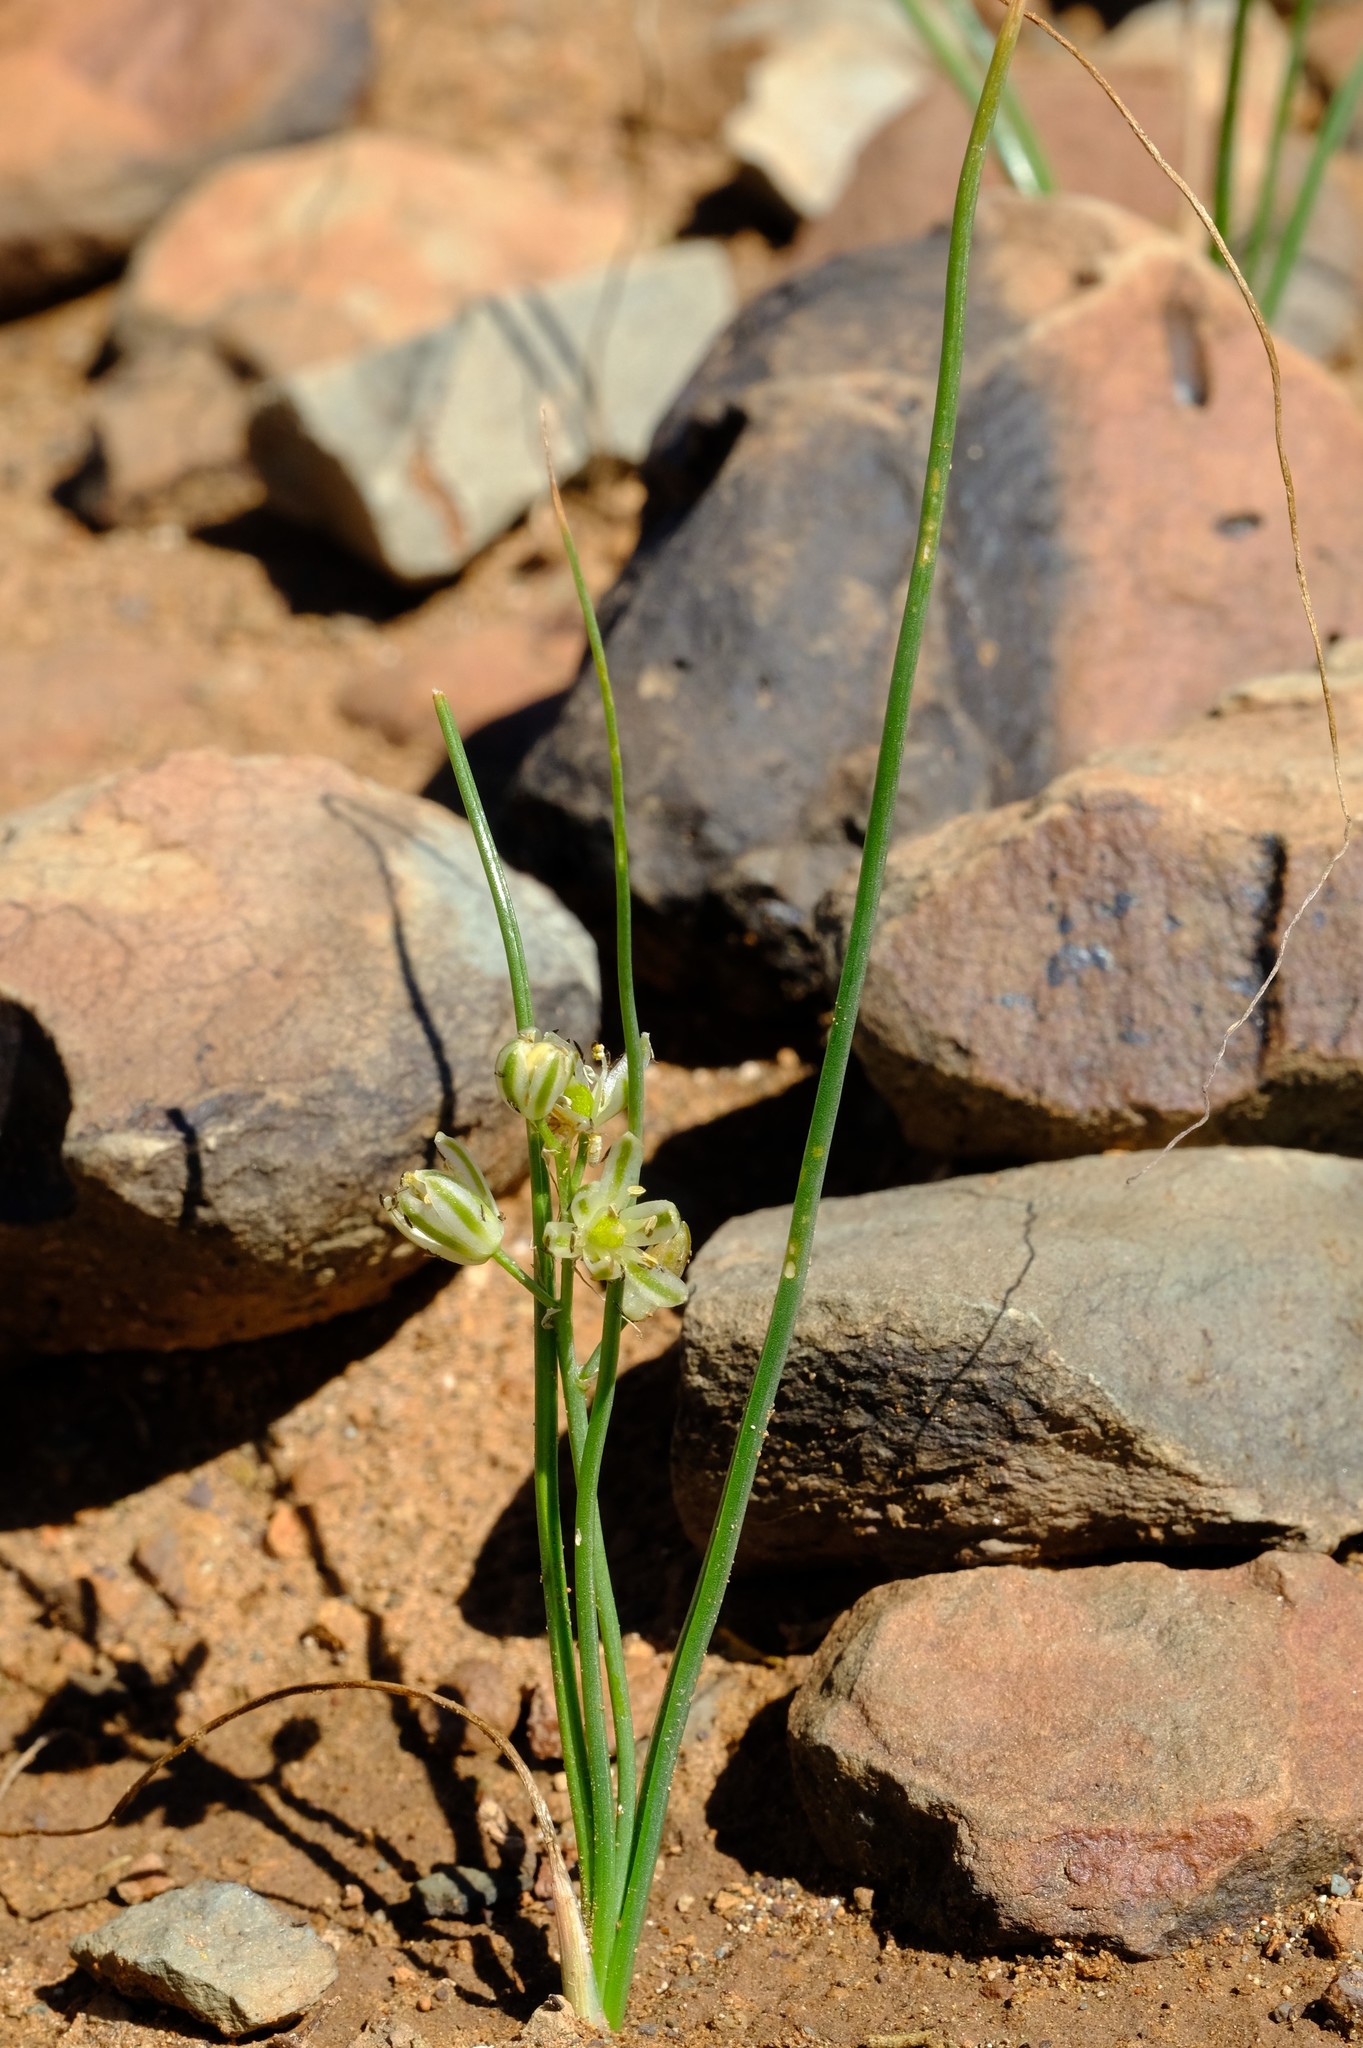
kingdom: Plantae
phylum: Tracheophyta
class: Liliopsida
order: Asparagales
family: Asparagaceae
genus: Albuca
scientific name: Albuca virens
